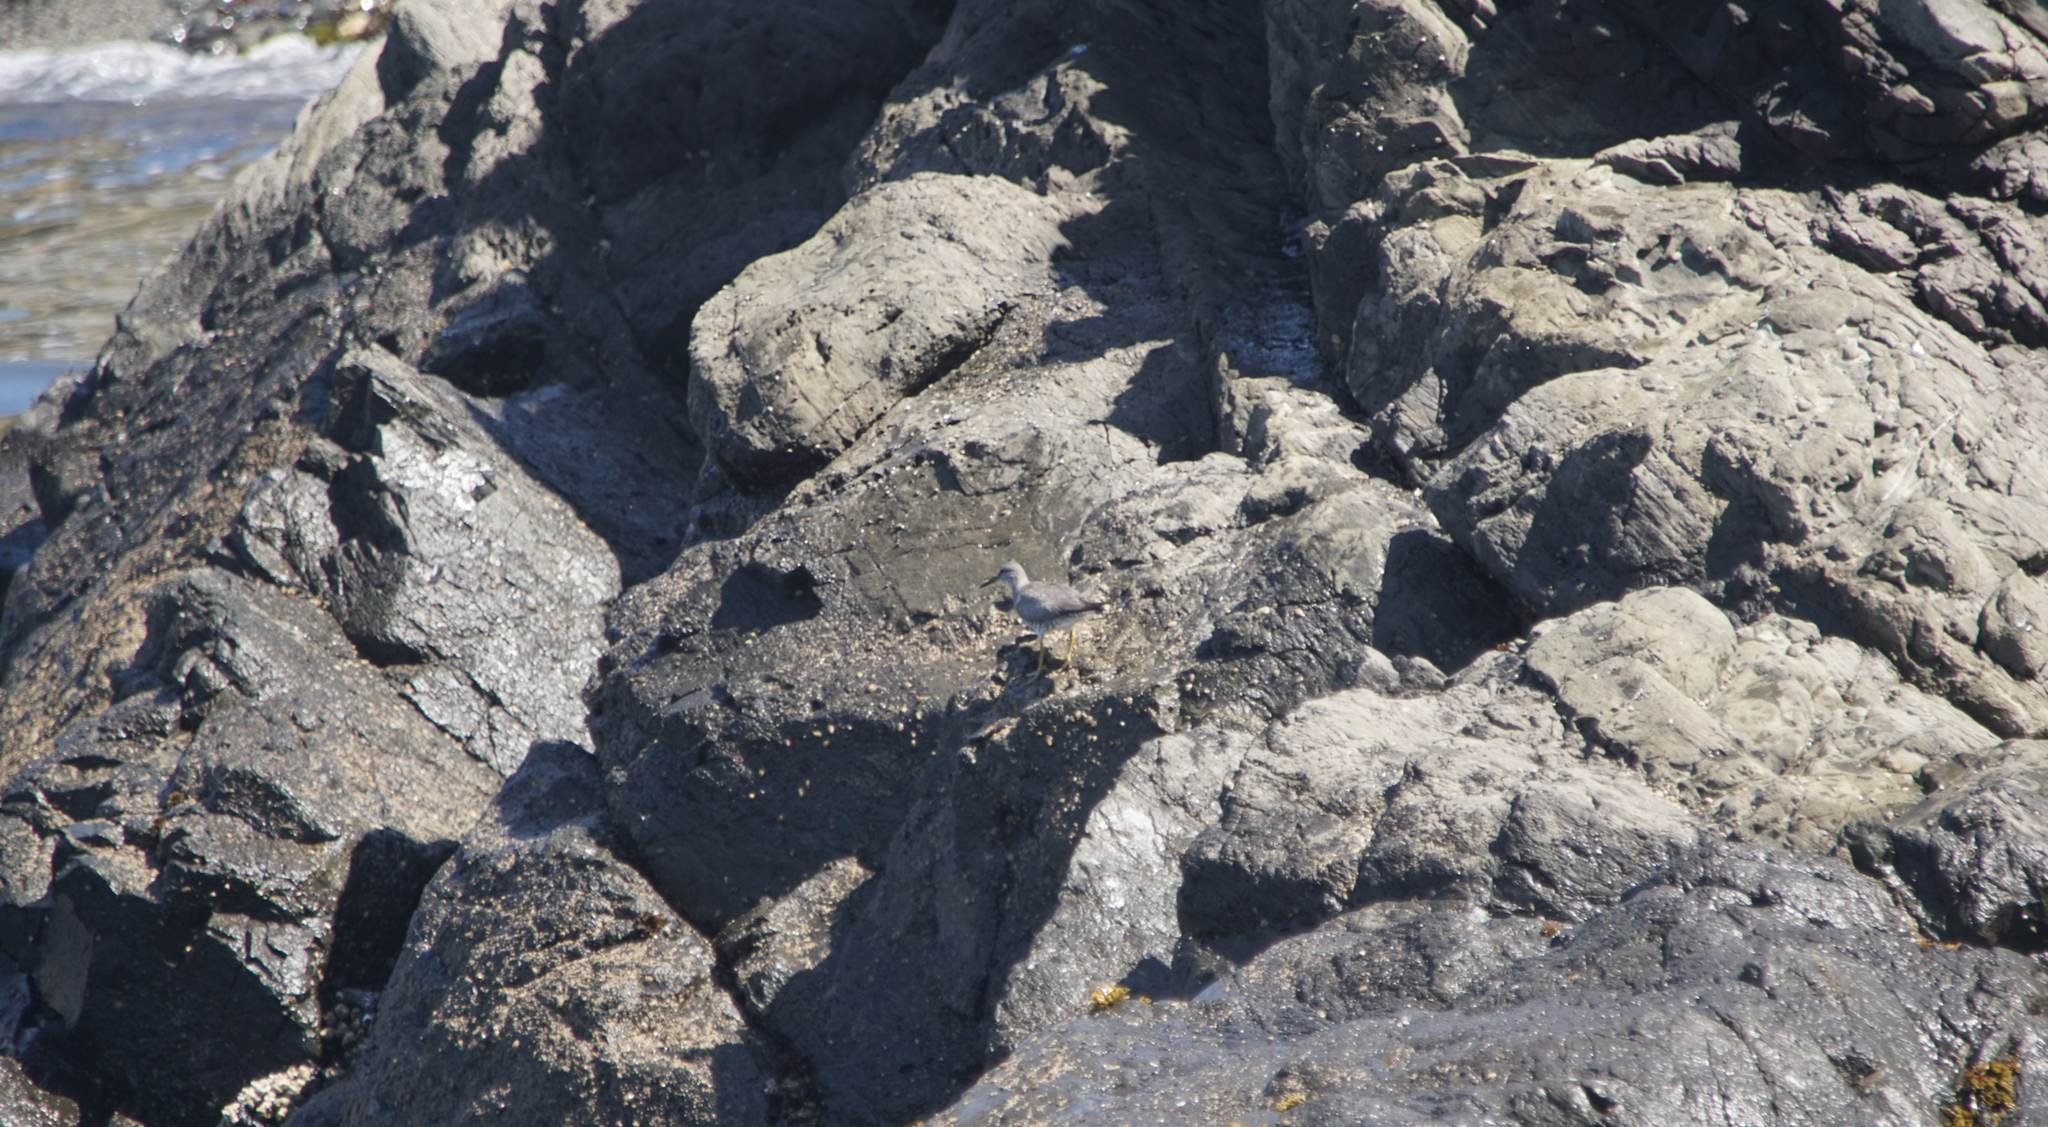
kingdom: Animalia
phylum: Chordata
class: Aves
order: Charadriiformes
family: Scolopacidae
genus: Tringa
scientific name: Tringa incana
